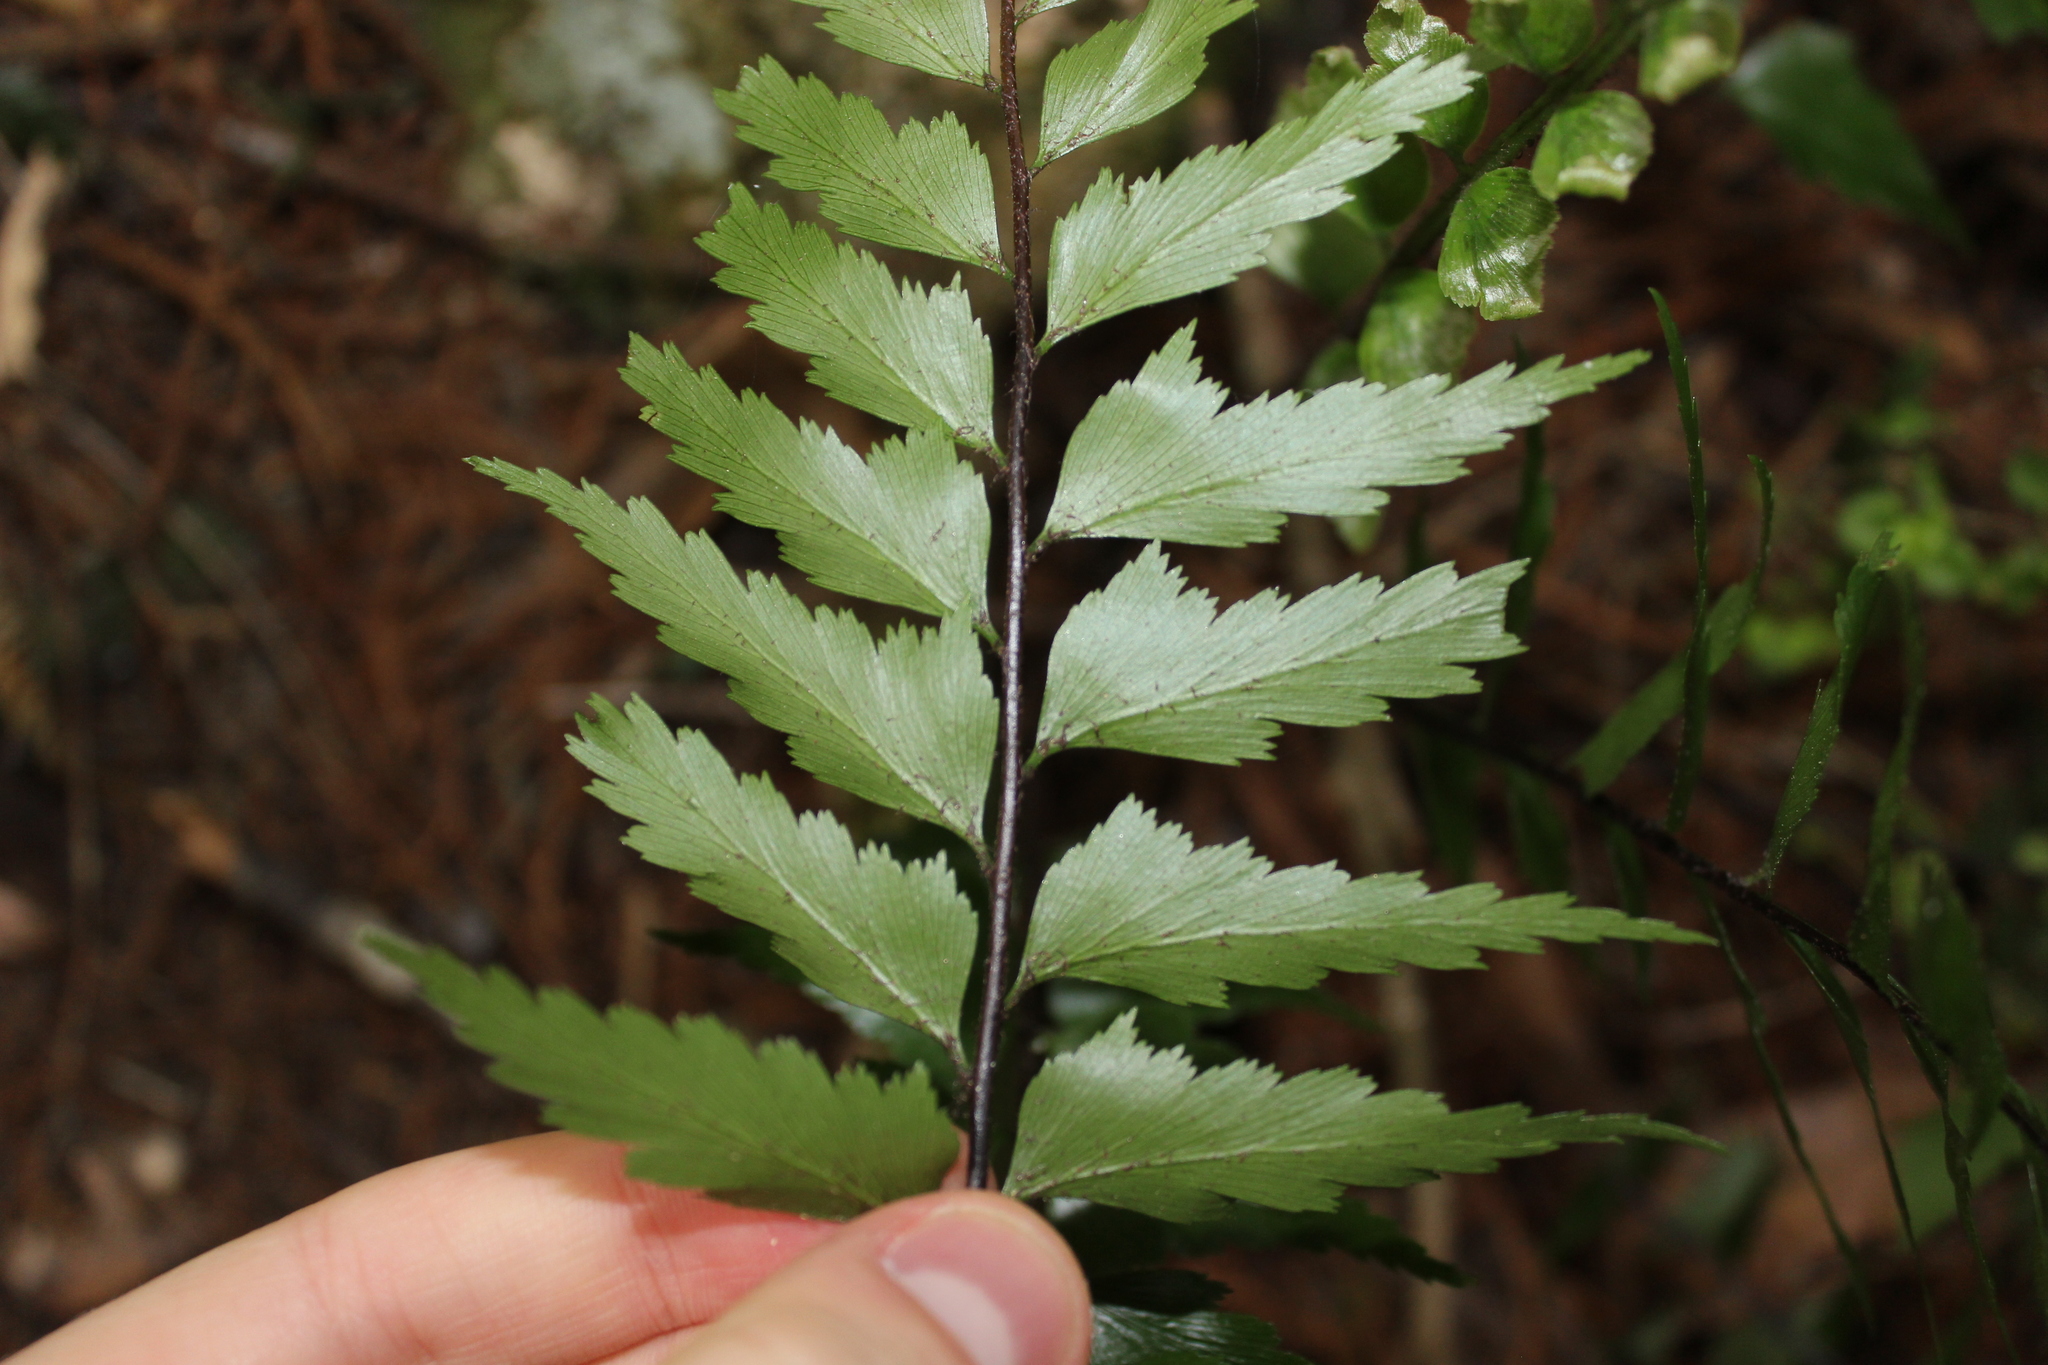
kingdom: Plantae
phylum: Tracheophyta
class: Polypodiopsida
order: Polypodiales
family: Aspleniaceae
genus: Asplenium
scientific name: Asplenium polyodon
